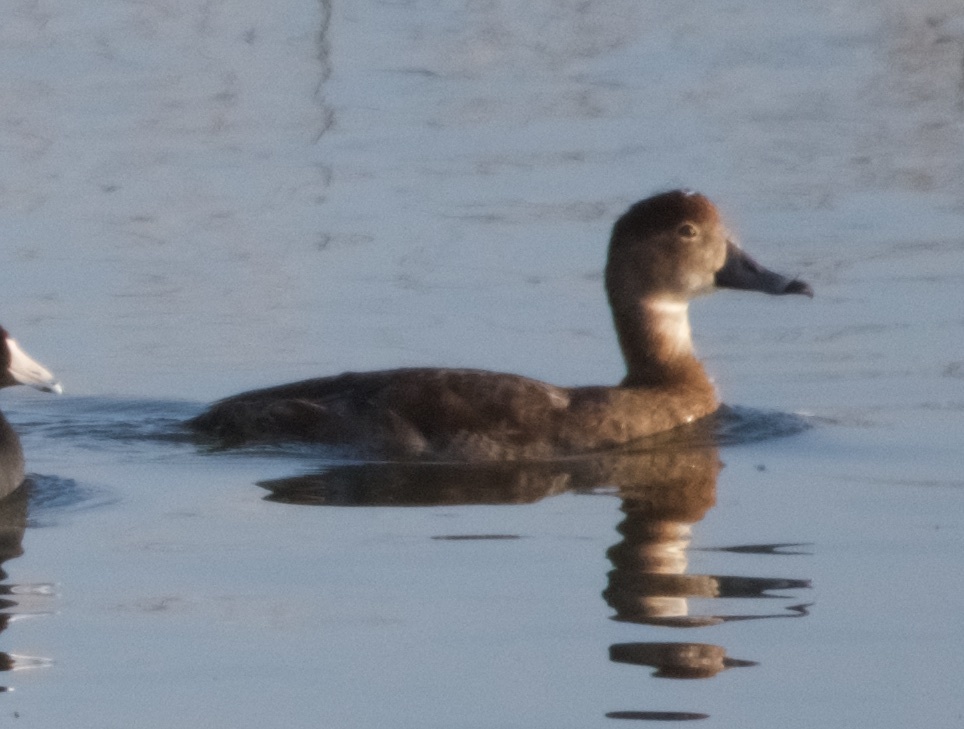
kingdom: Animalia
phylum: Chordata
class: Aves
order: Anseriformes
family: Anatidae
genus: Aythya
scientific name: Aythya americana
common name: Redhead
